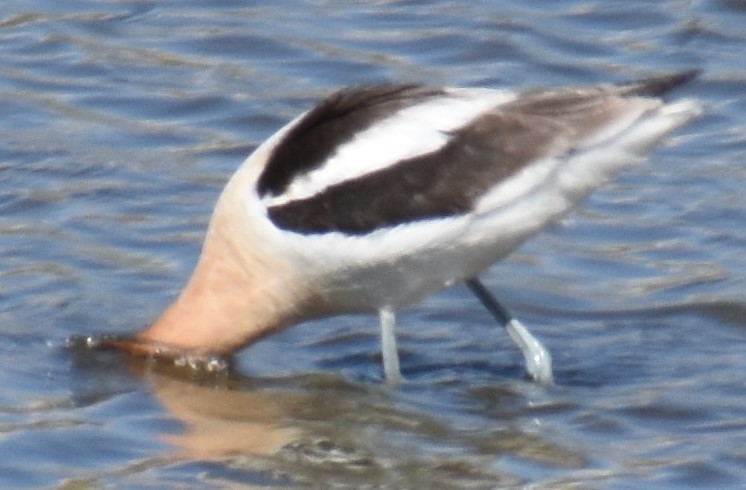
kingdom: Animalia
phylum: Chordata
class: Aves
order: Charadriiformes
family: Recurvirostridae
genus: Recurvirostra
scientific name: Recurvirostra americana
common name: American avocet
